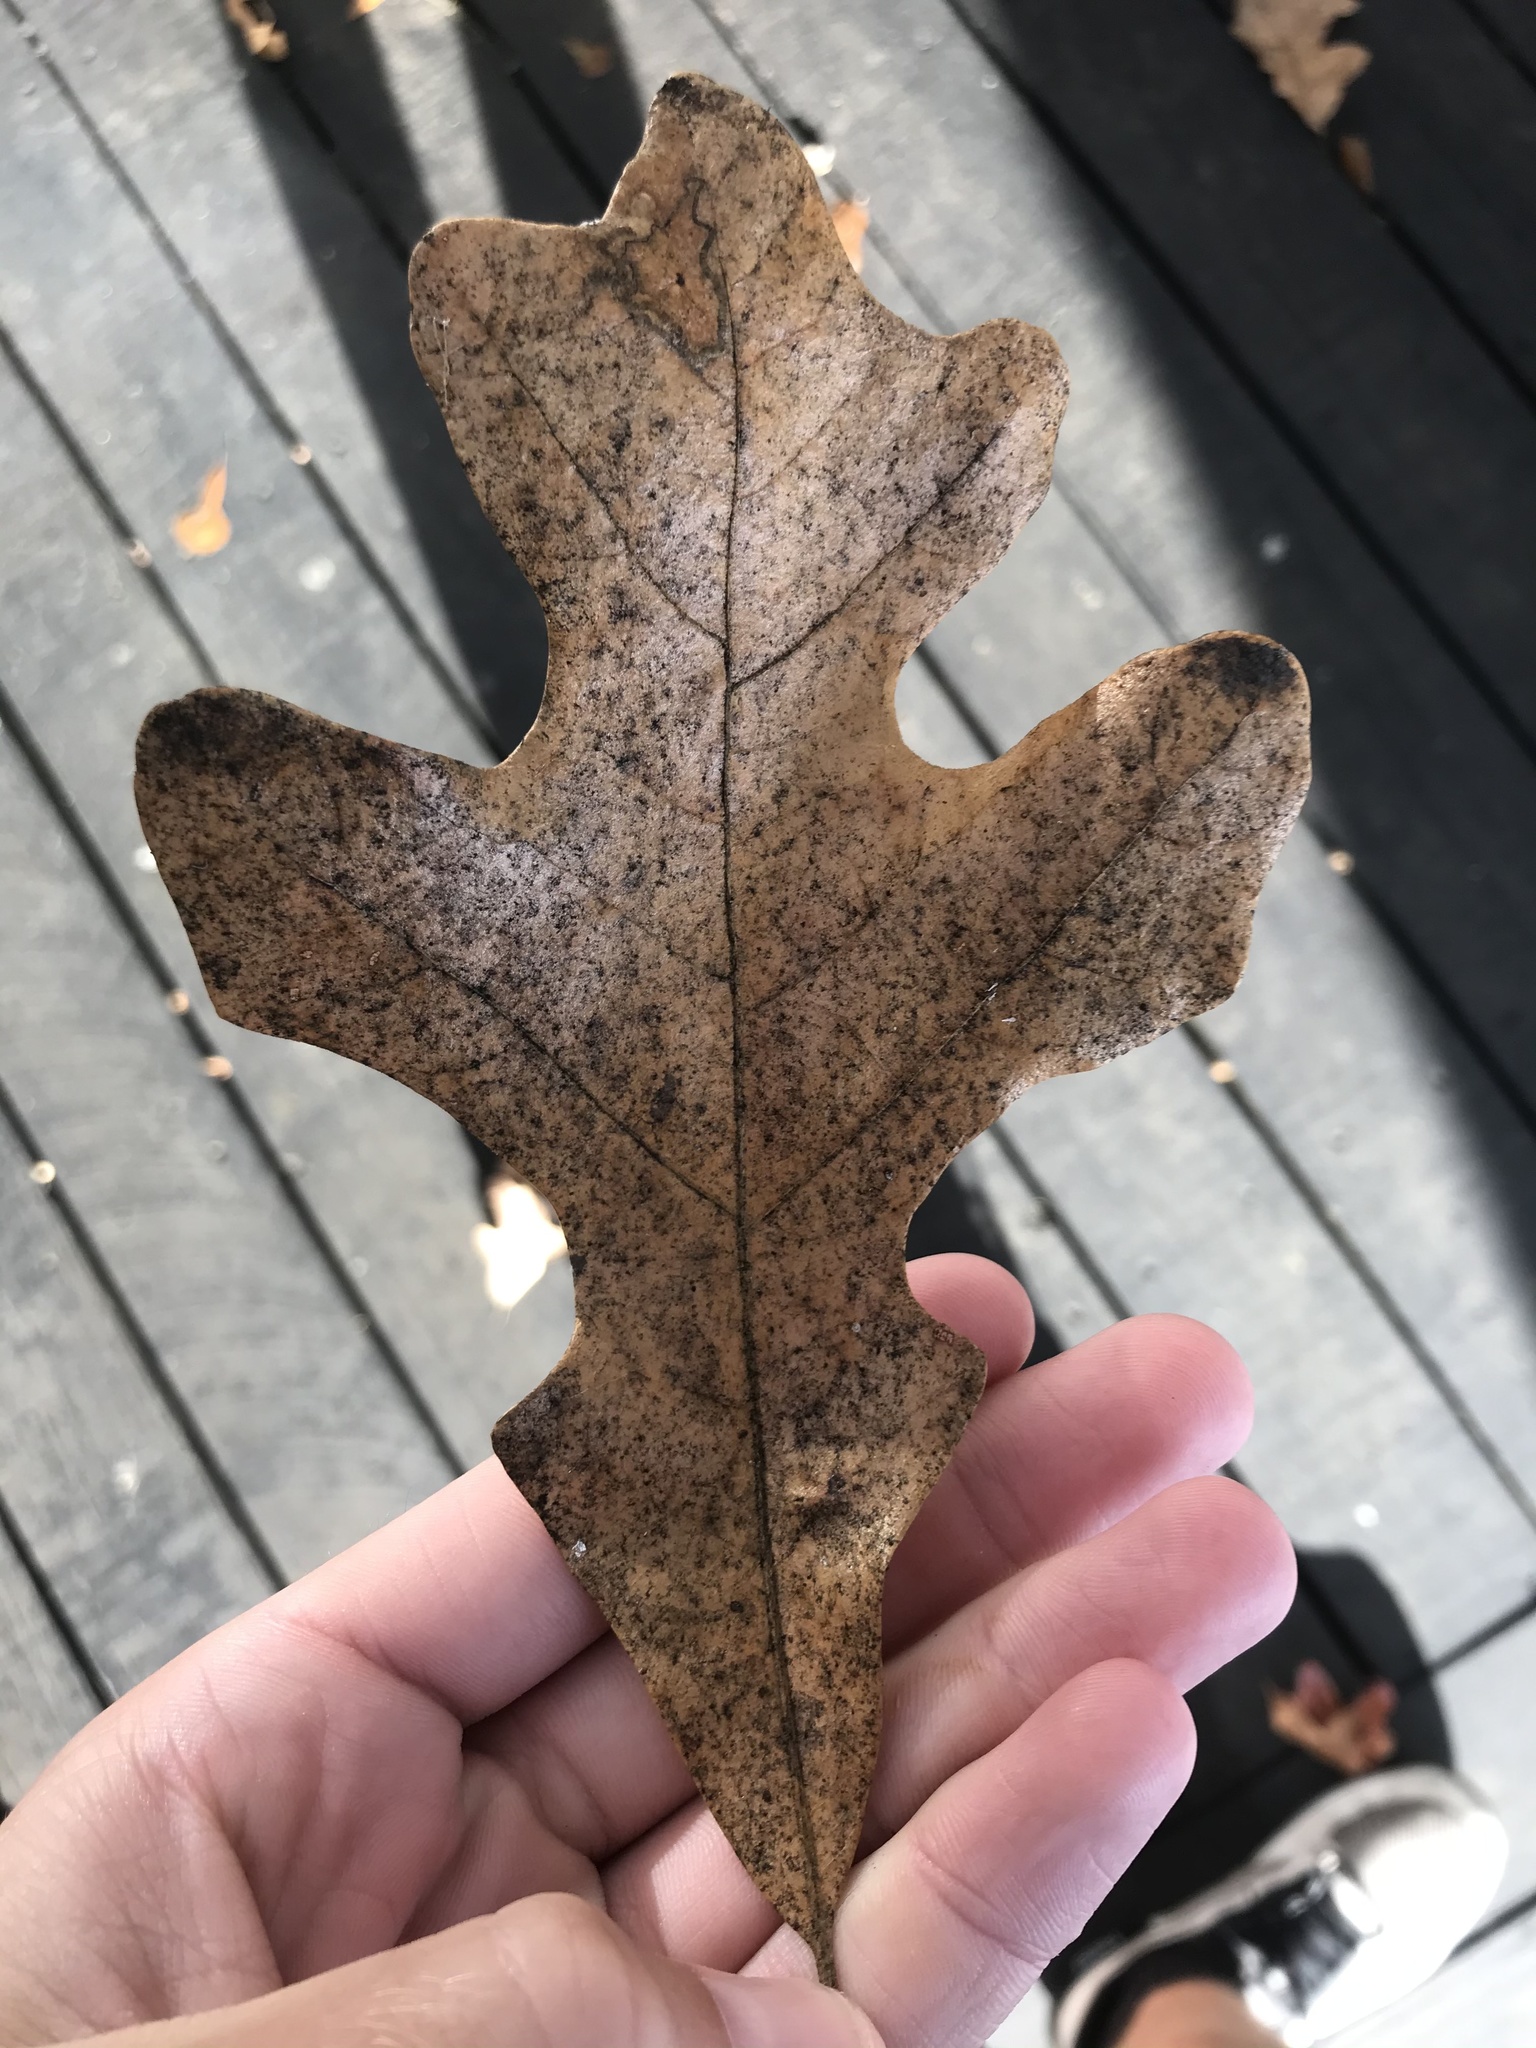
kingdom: Plantae
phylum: Tracheophyta
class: Magnoliopsida
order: Fagales
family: Fagaceae
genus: Quercus
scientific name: Quercus stellata
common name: Post oak
